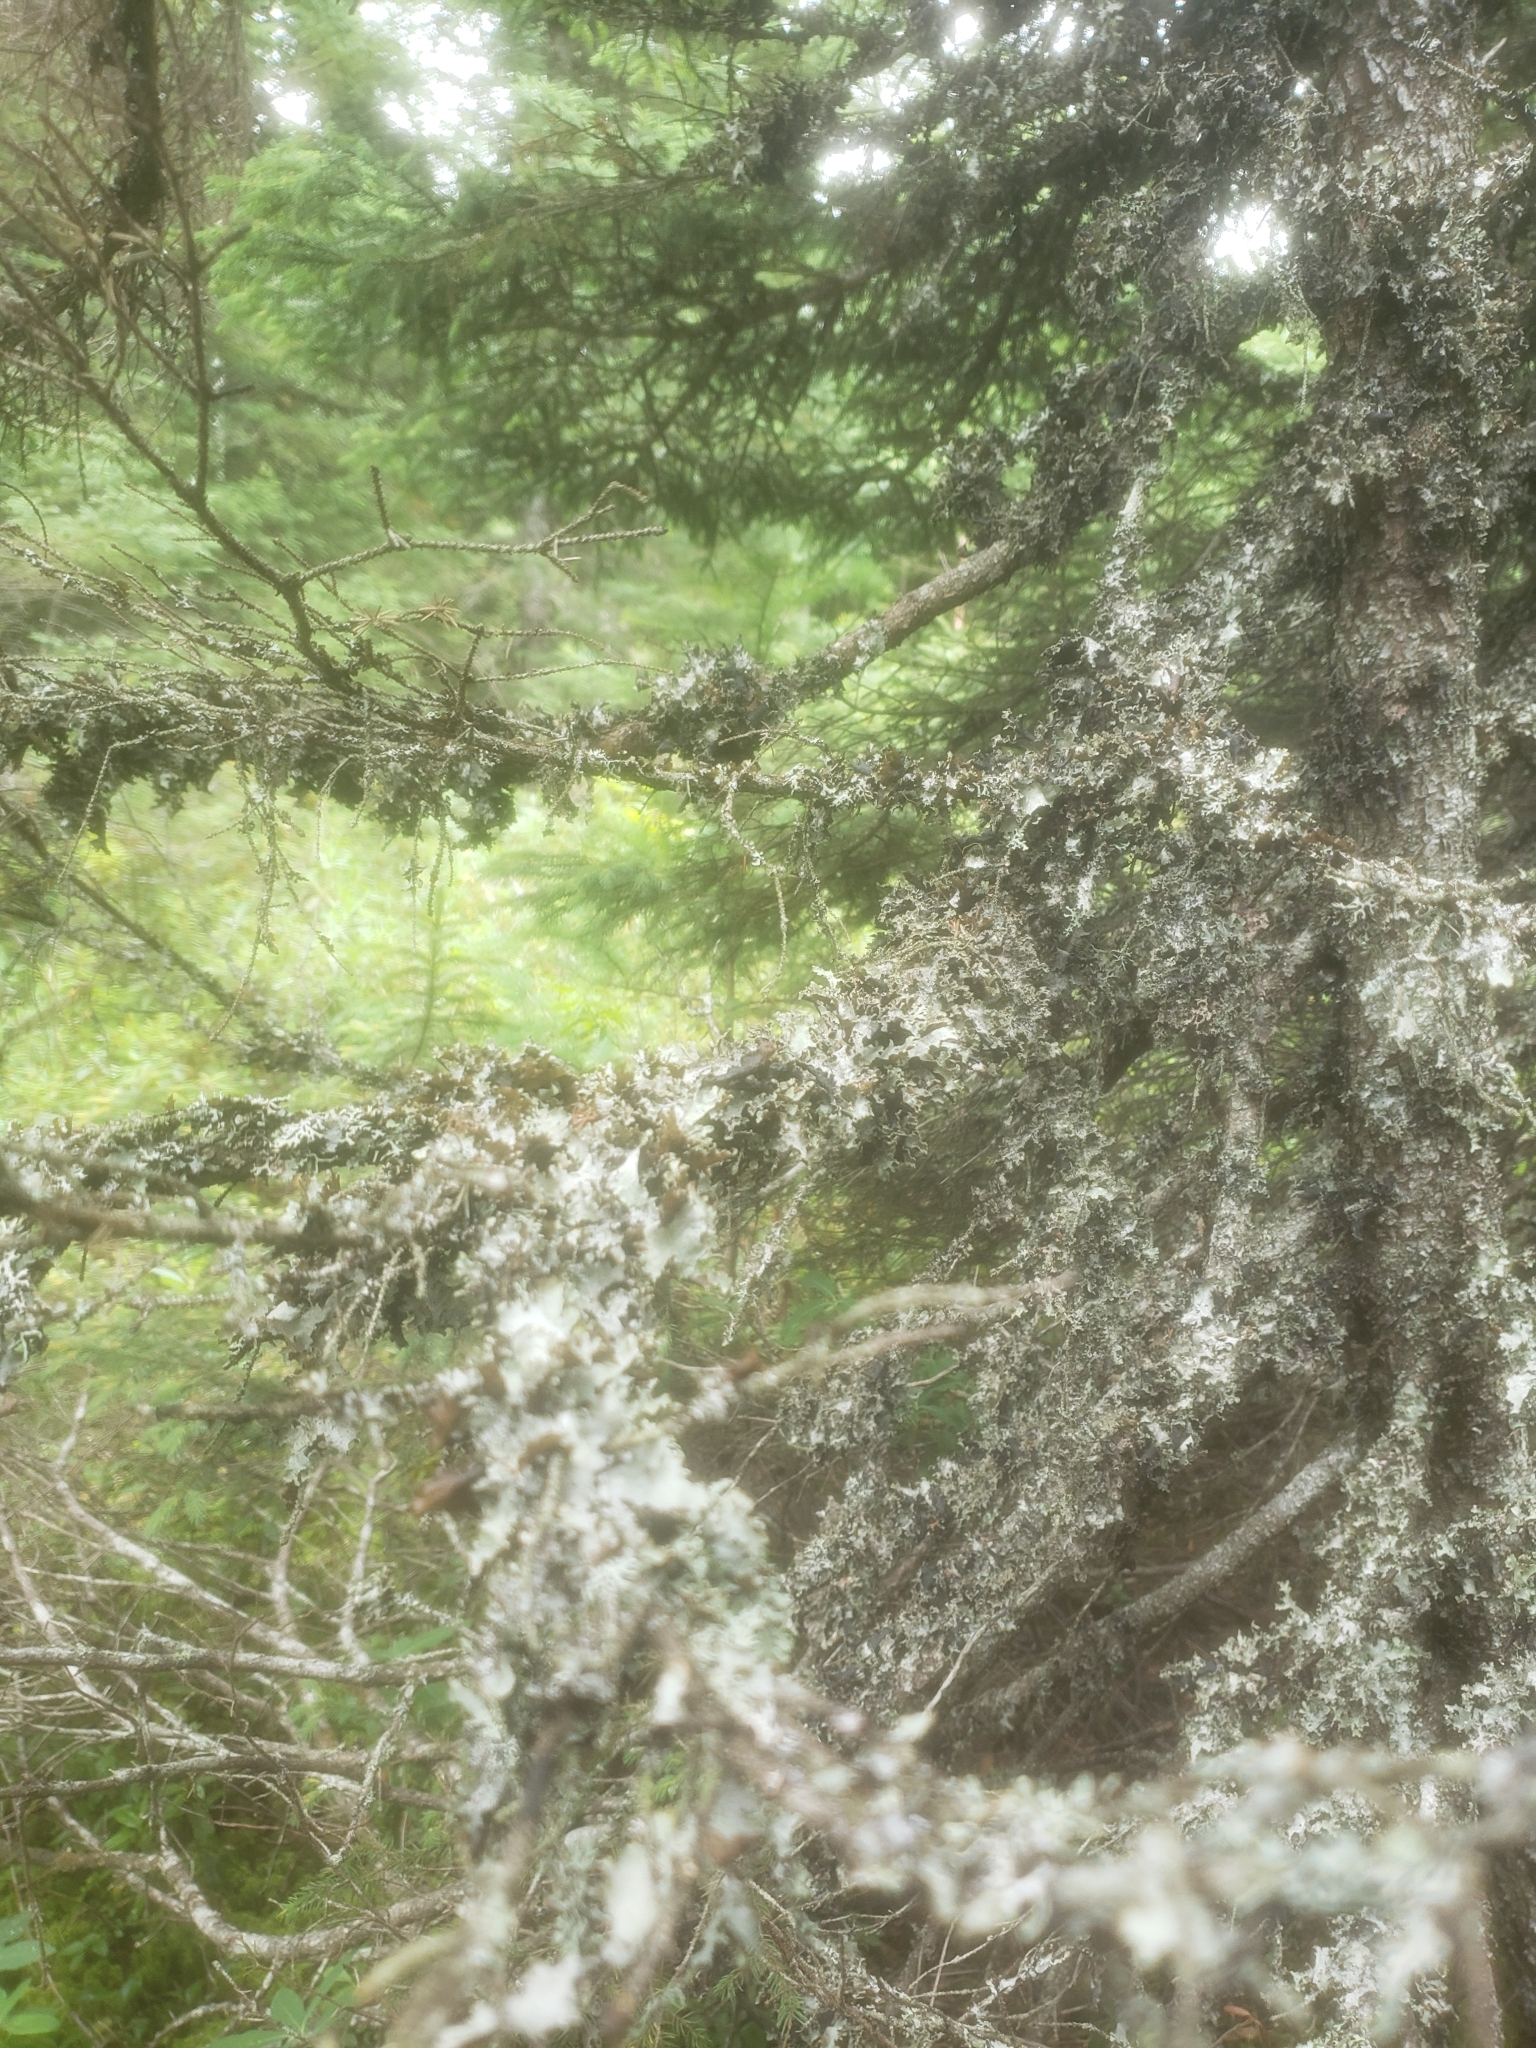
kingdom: Fungi
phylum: Ascomycota
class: Lecanoromycetes
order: Lecanorales
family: Parmeliaceae
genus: Platismatia
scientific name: Platismatia glauca
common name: Varied rag lichen
